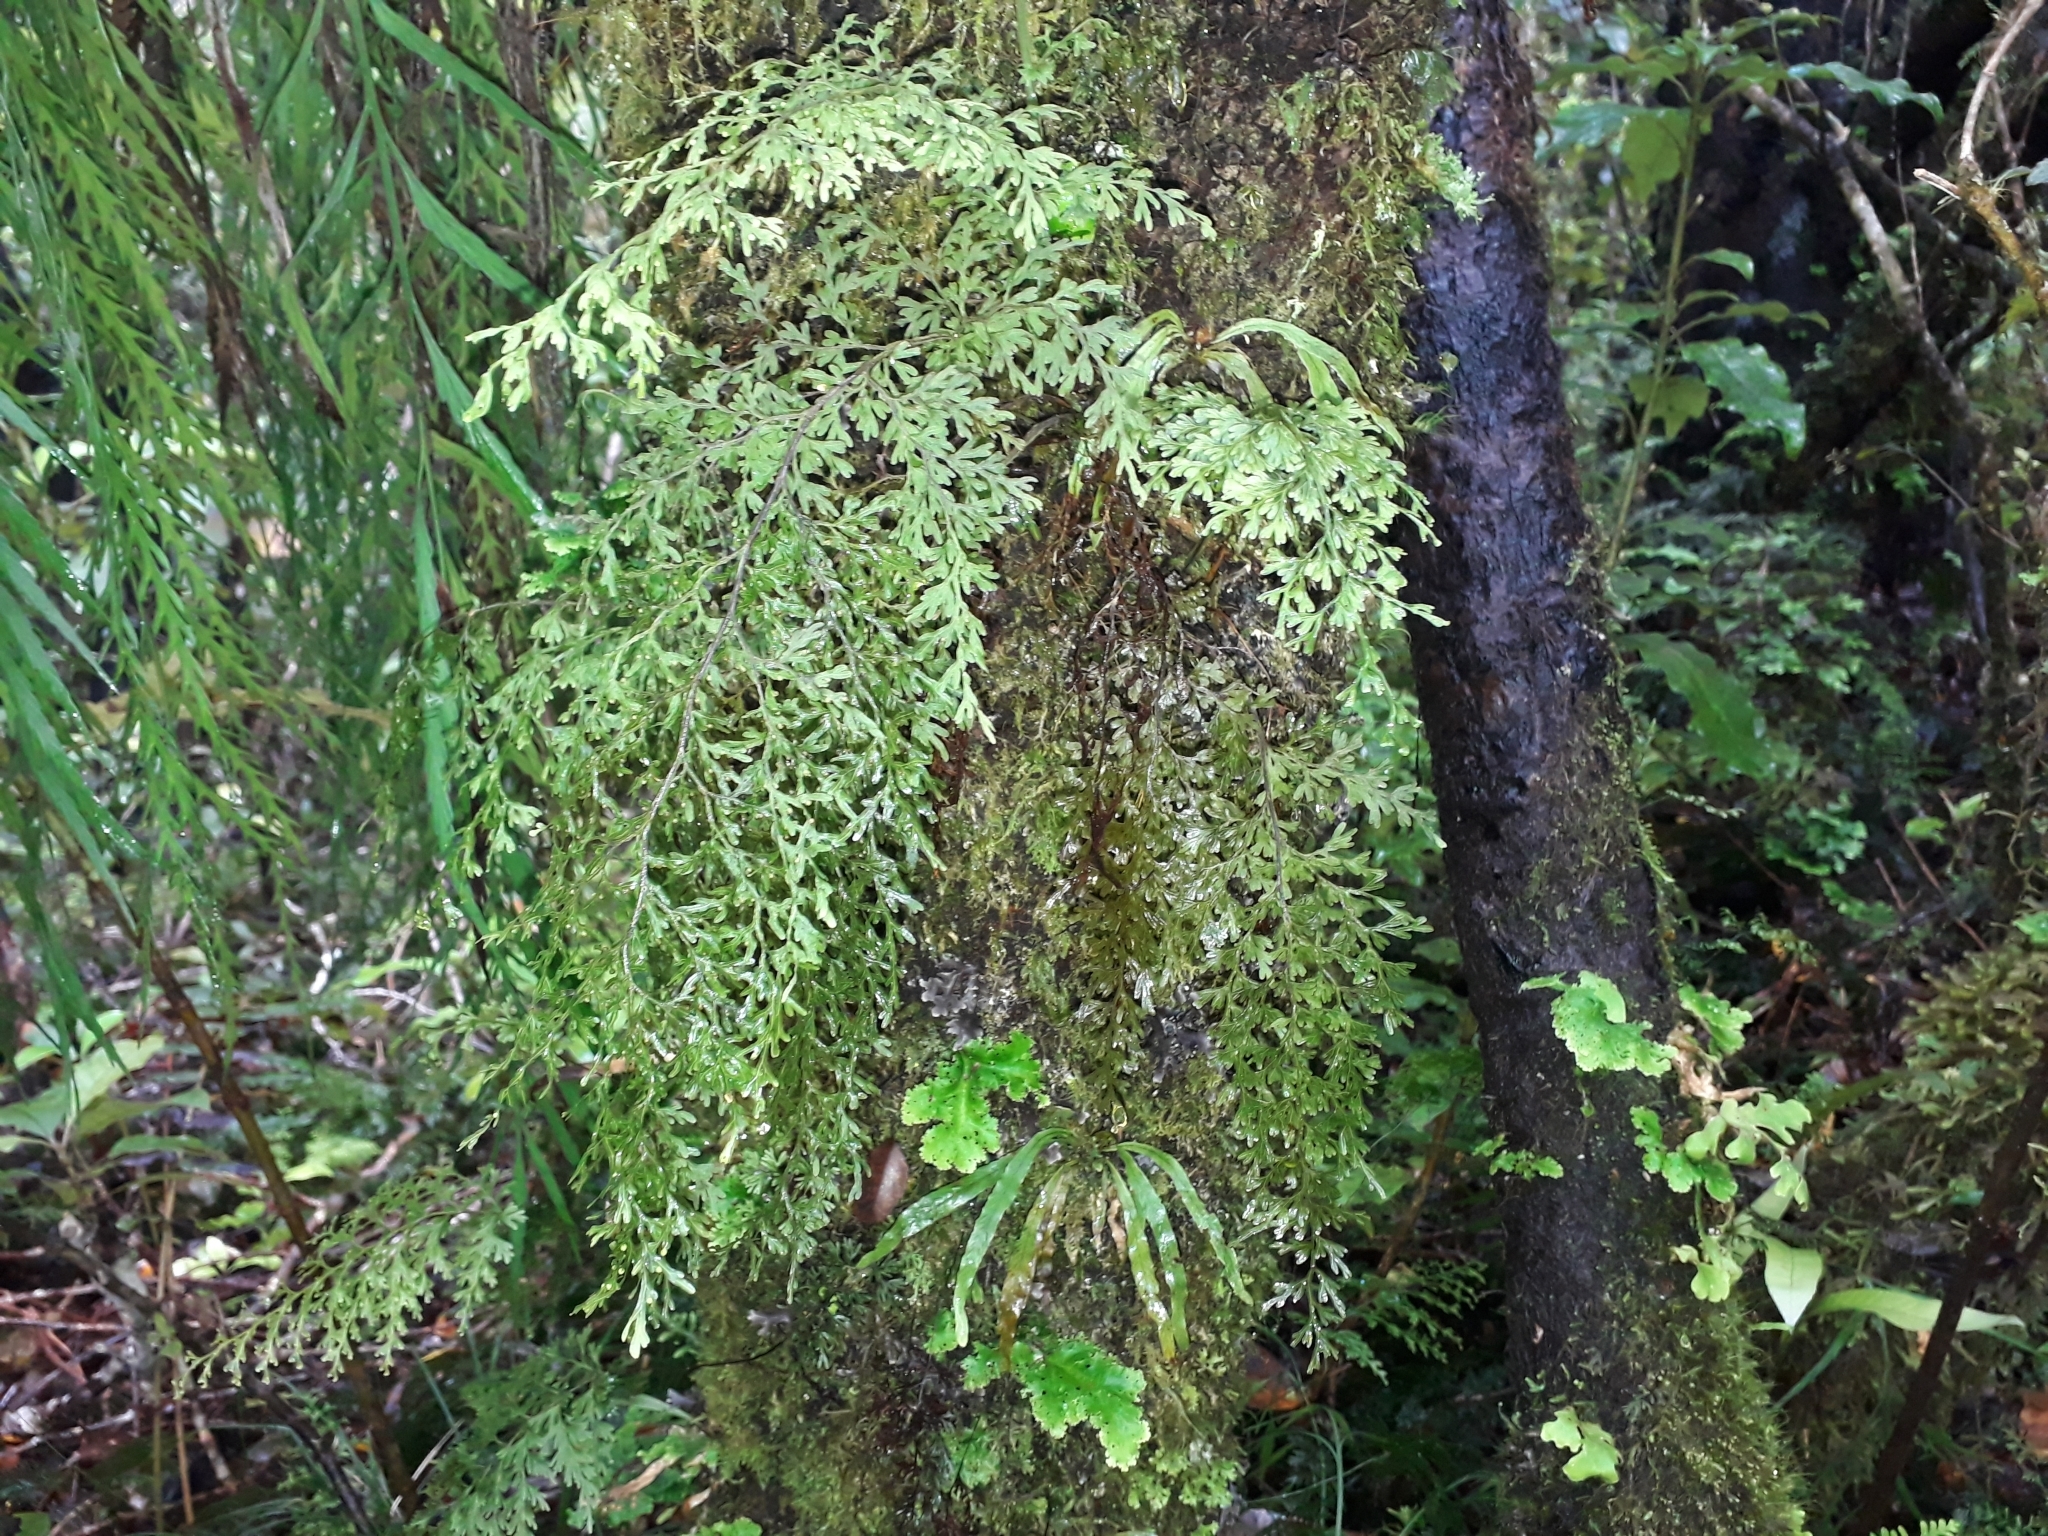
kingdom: Plantae
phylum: Tracheophyta
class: Polypodiopsida
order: Hymenophyllales
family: Hymenophyllaceae
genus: Hymenophyllum
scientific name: Hymenophyllum pulcherrimum
